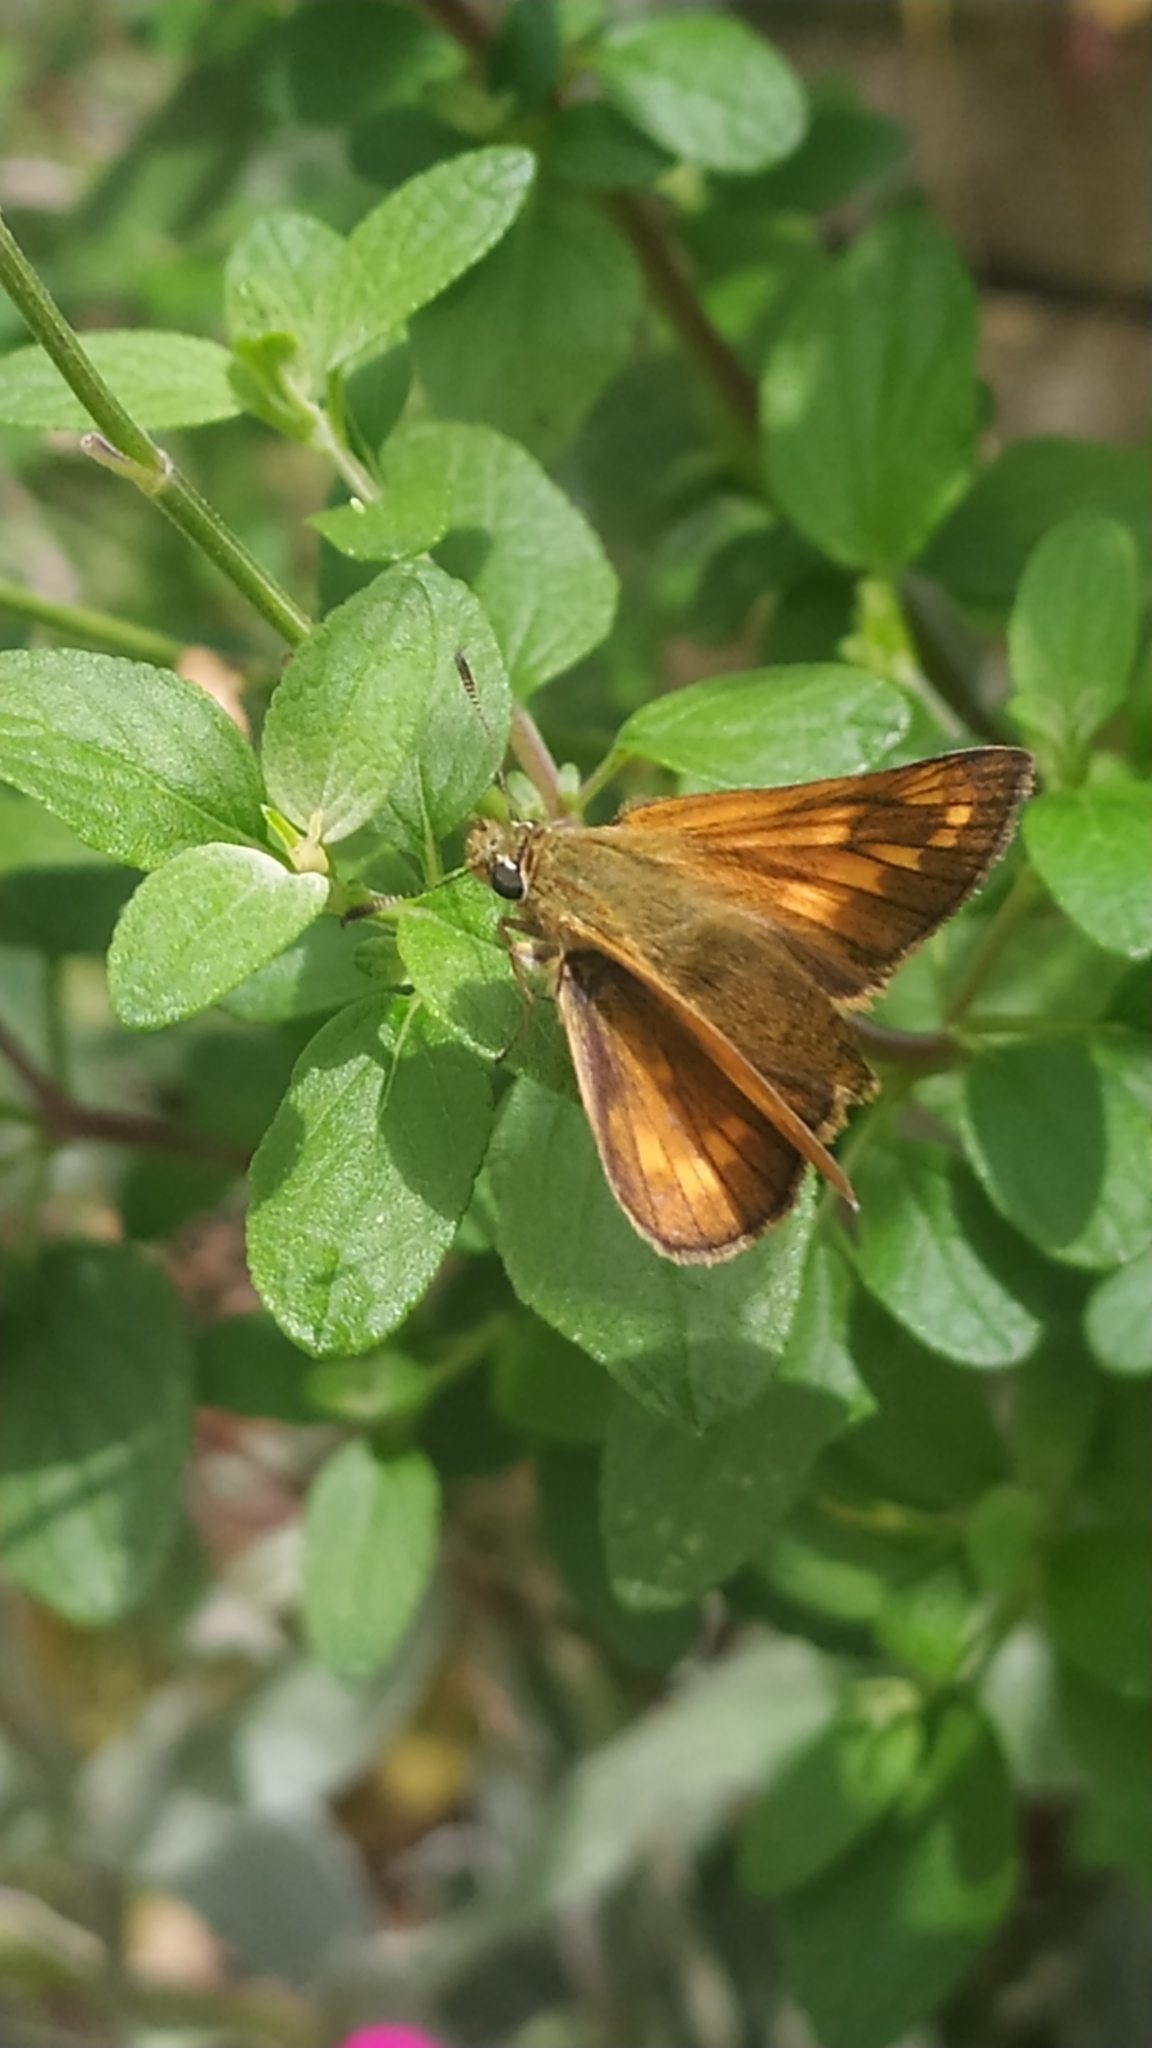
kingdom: Animalia
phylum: Arthropoda
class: Insecta
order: Lepidoptera
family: Hesperiidae
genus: Ochlodes
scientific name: Ochlodes venata
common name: Large skipper
